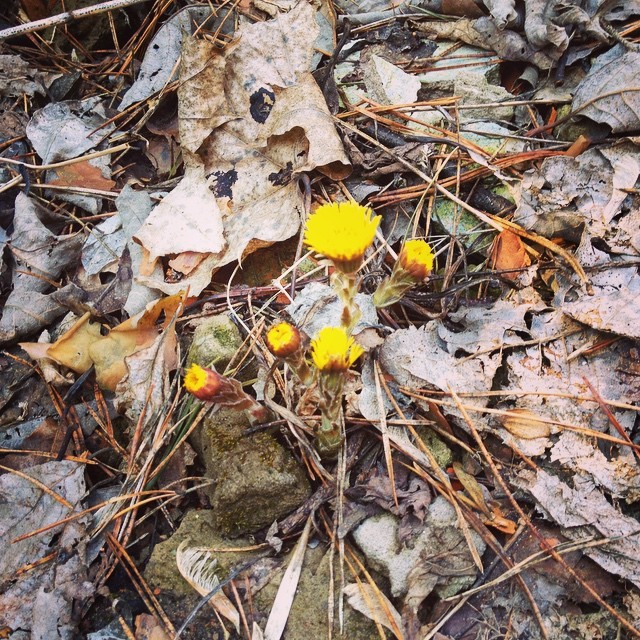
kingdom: Plantae
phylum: Tracheophyta
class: Magnoliopsida
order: Asterales
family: Asteraceae
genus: Tussilago
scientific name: Tussilago farfara
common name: Coltsfoot
